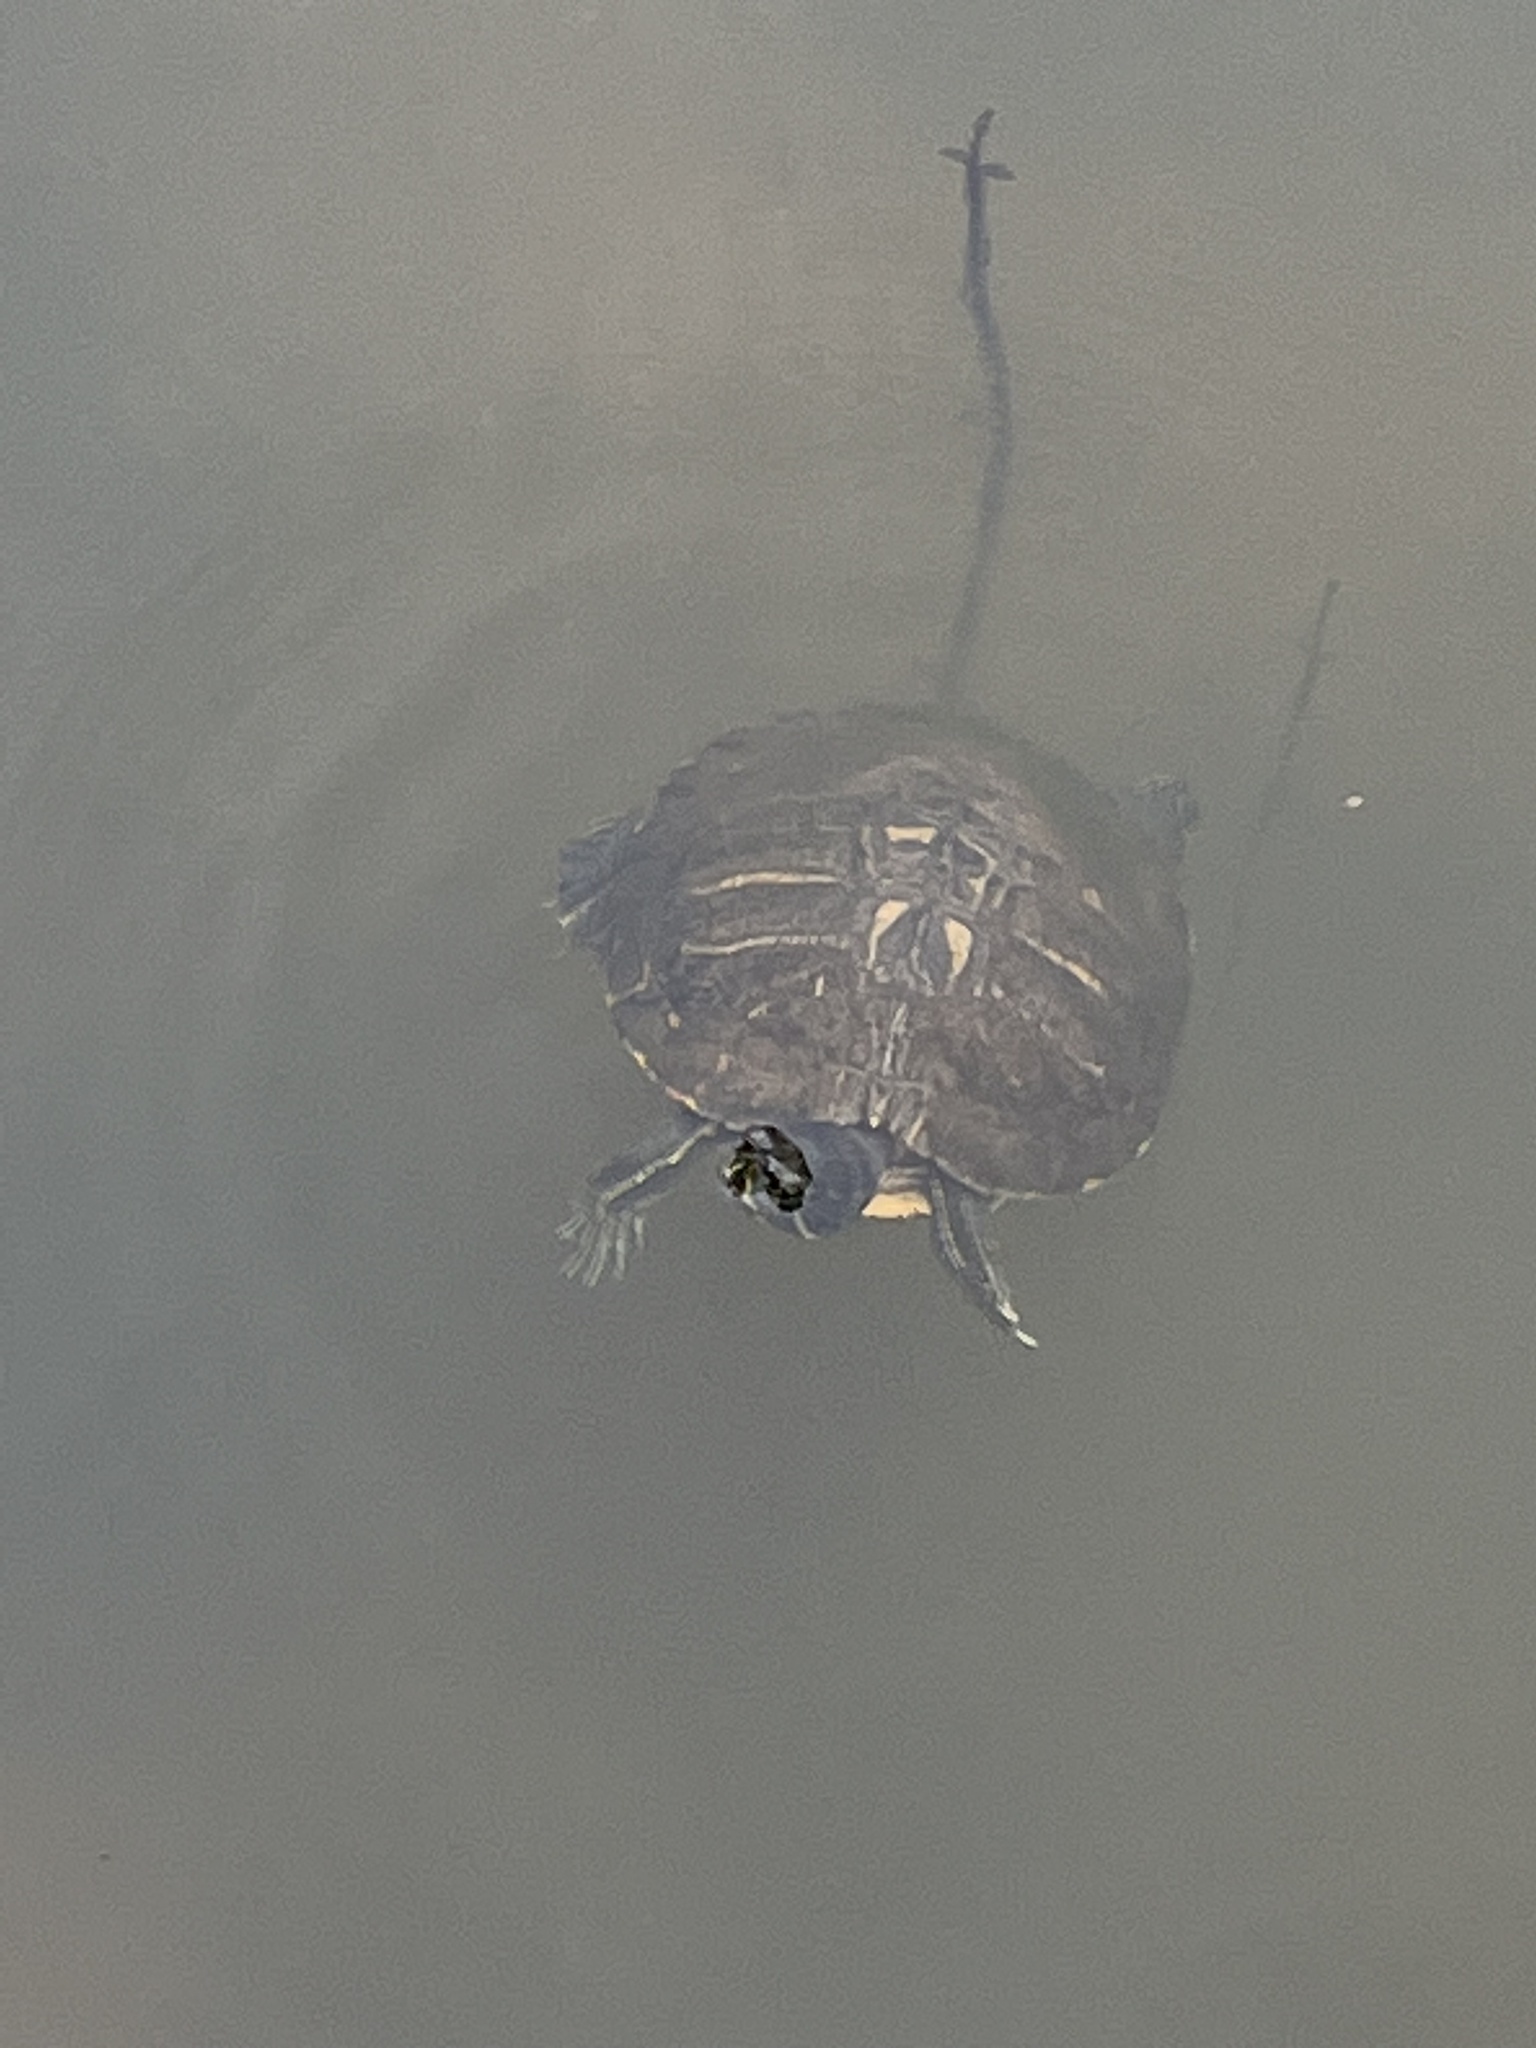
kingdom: Animalia
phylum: Chordata
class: Testudines
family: Emydidae
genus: Trachemys
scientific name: Trachemys scripta
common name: Slider
